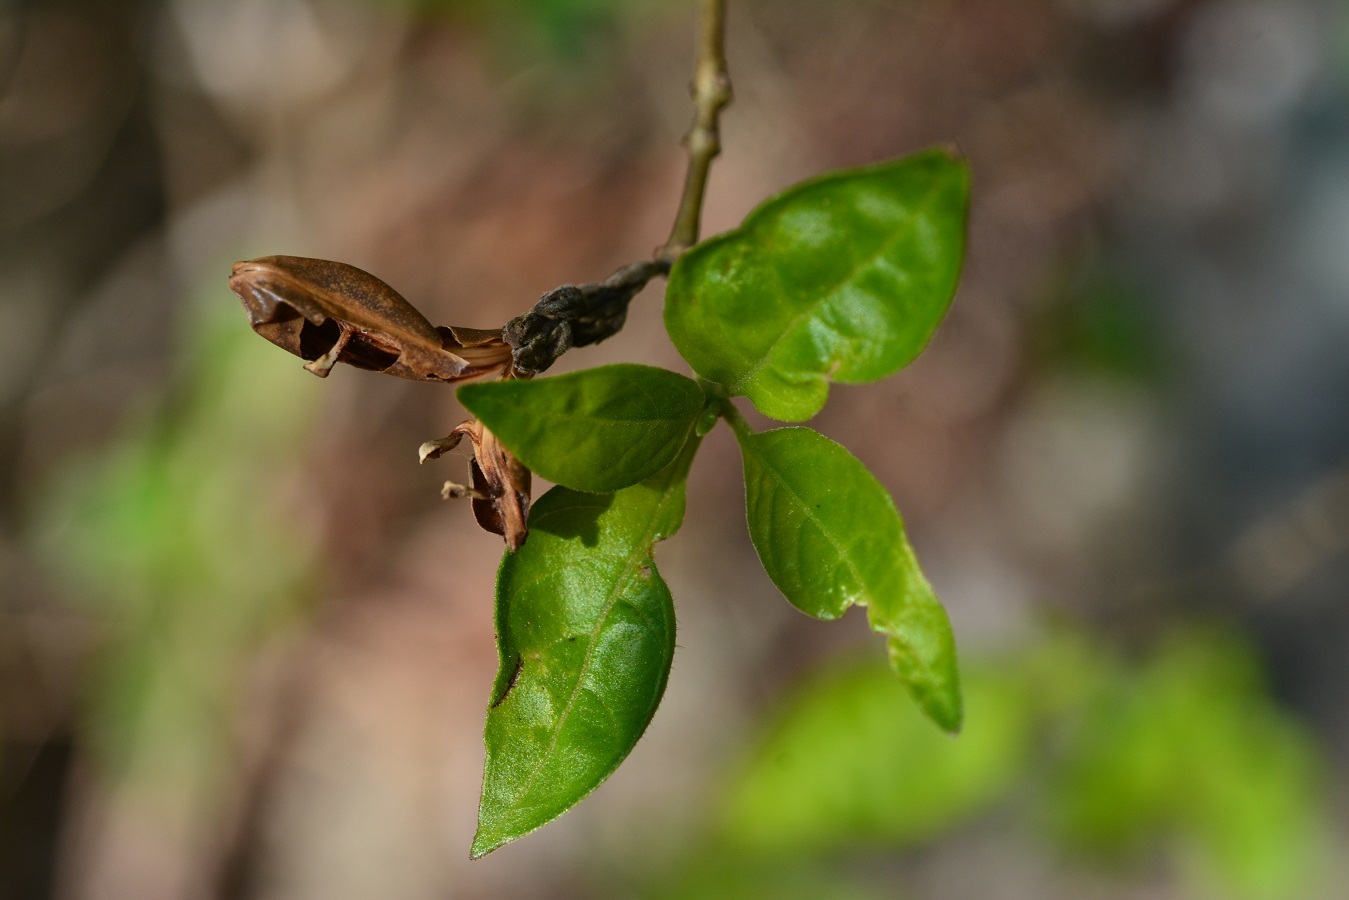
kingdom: Plantae
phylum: Tracheophyta
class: Magnoliopsida
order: Lamiales
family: Acanthaceae
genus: Holographis
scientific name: Holographis parayana
